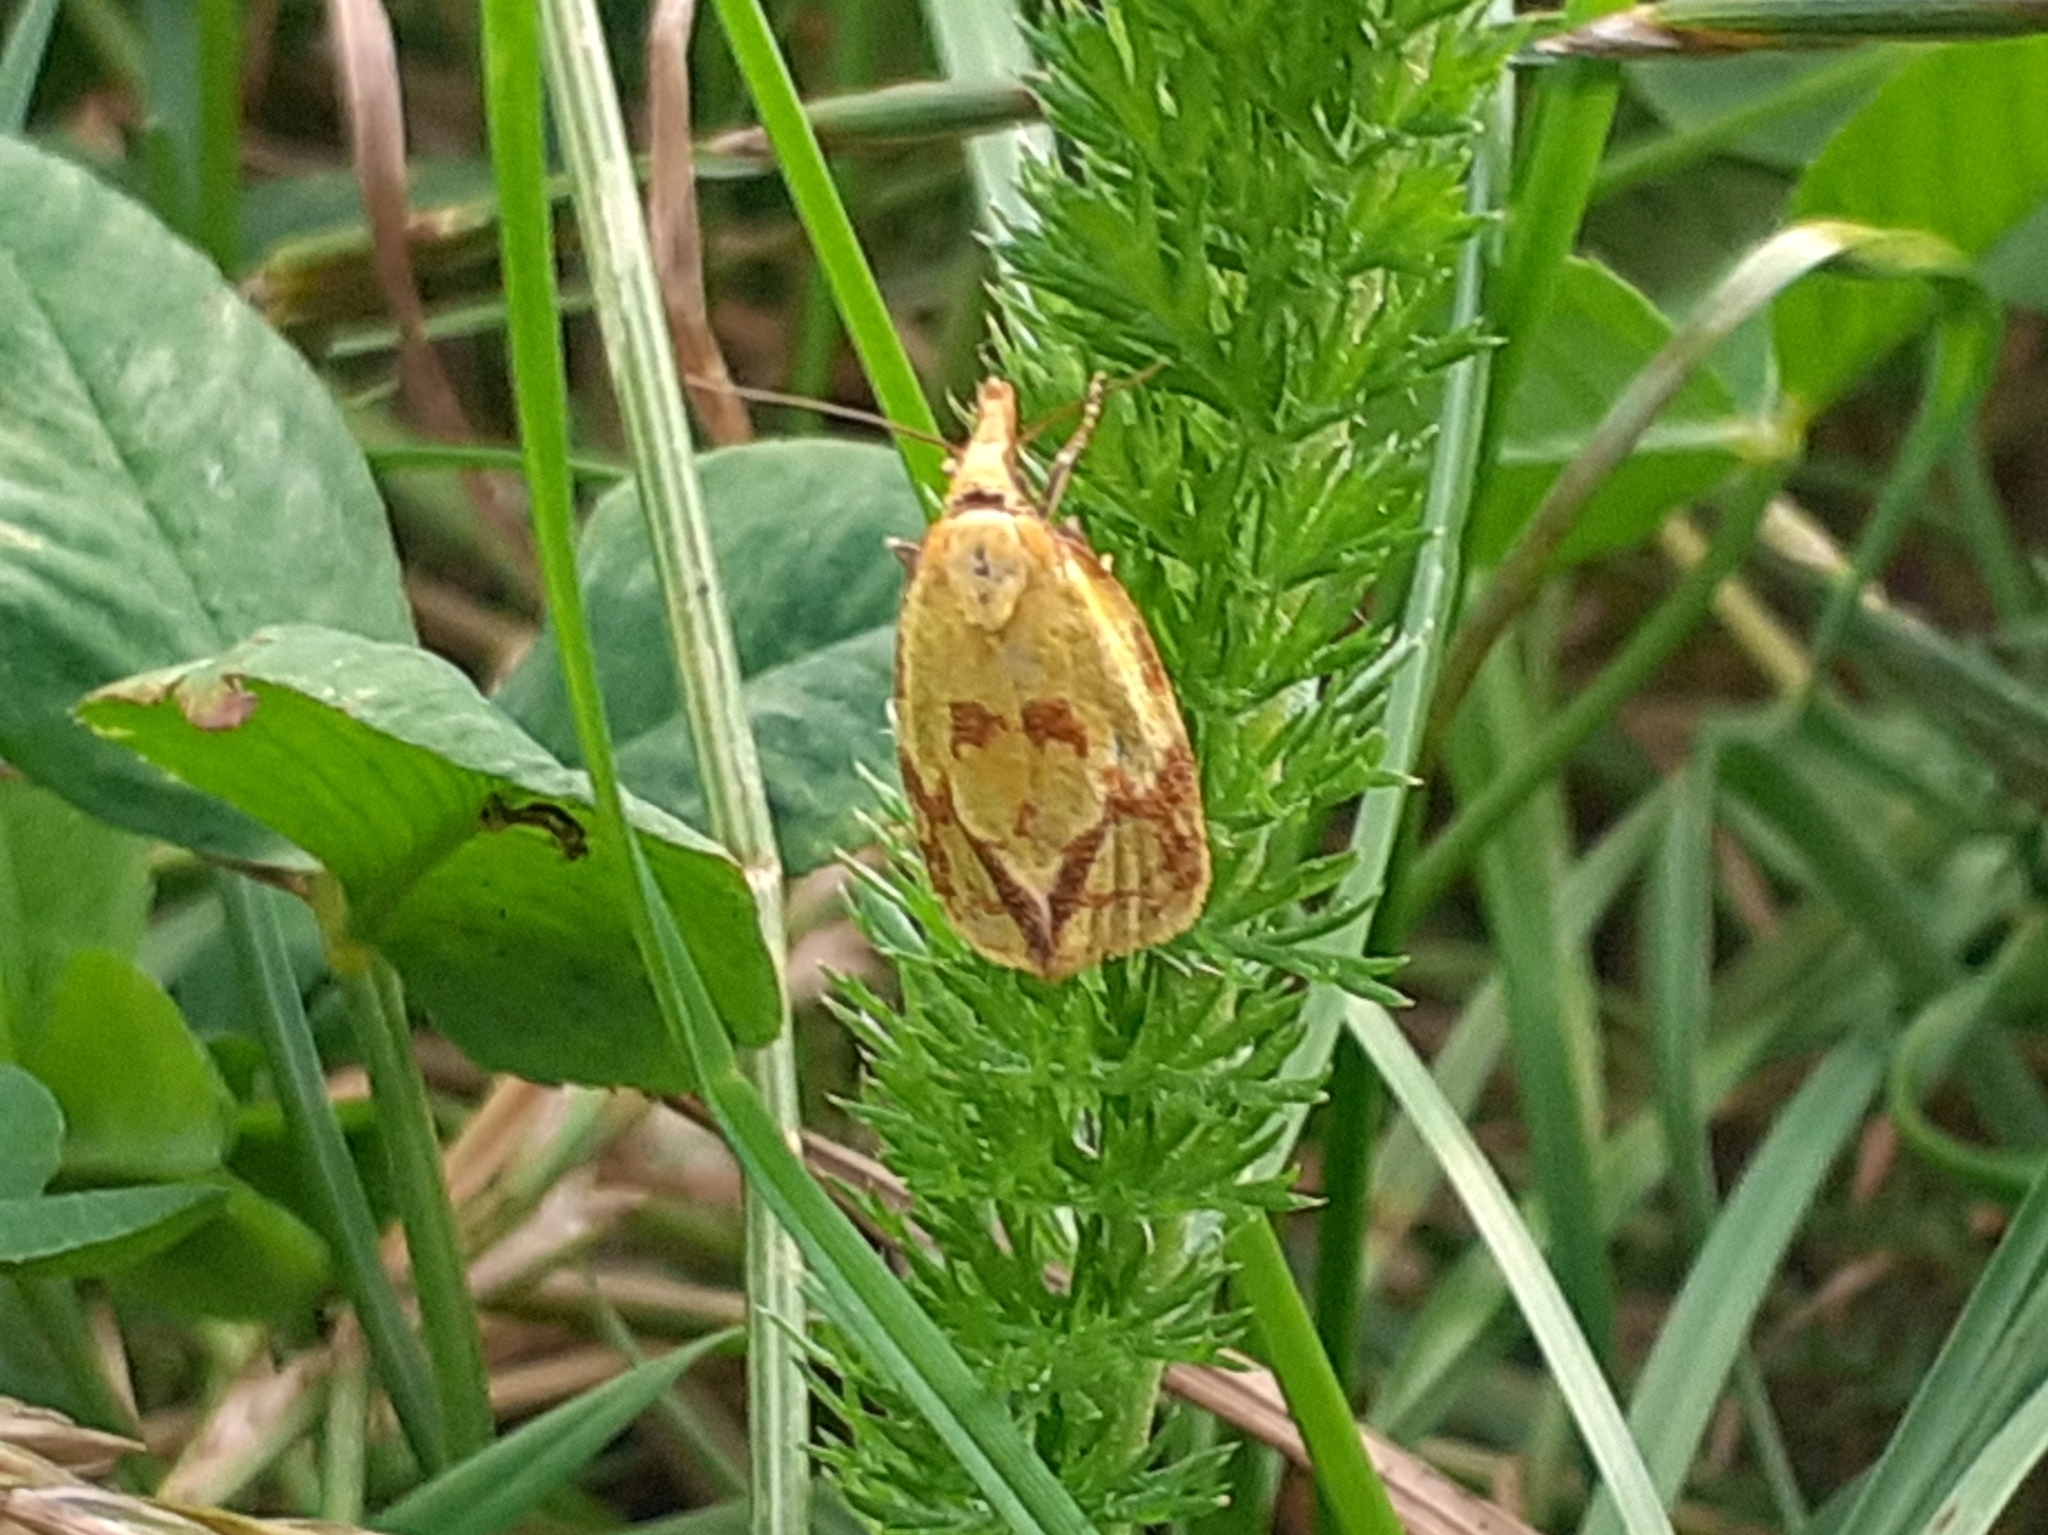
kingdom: Animalia
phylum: Arthropoda
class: Insecta
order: Lepidoptera
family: Tortricidae
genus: Agapeta
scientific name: Agapeta hamana
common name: Common yellow conch
